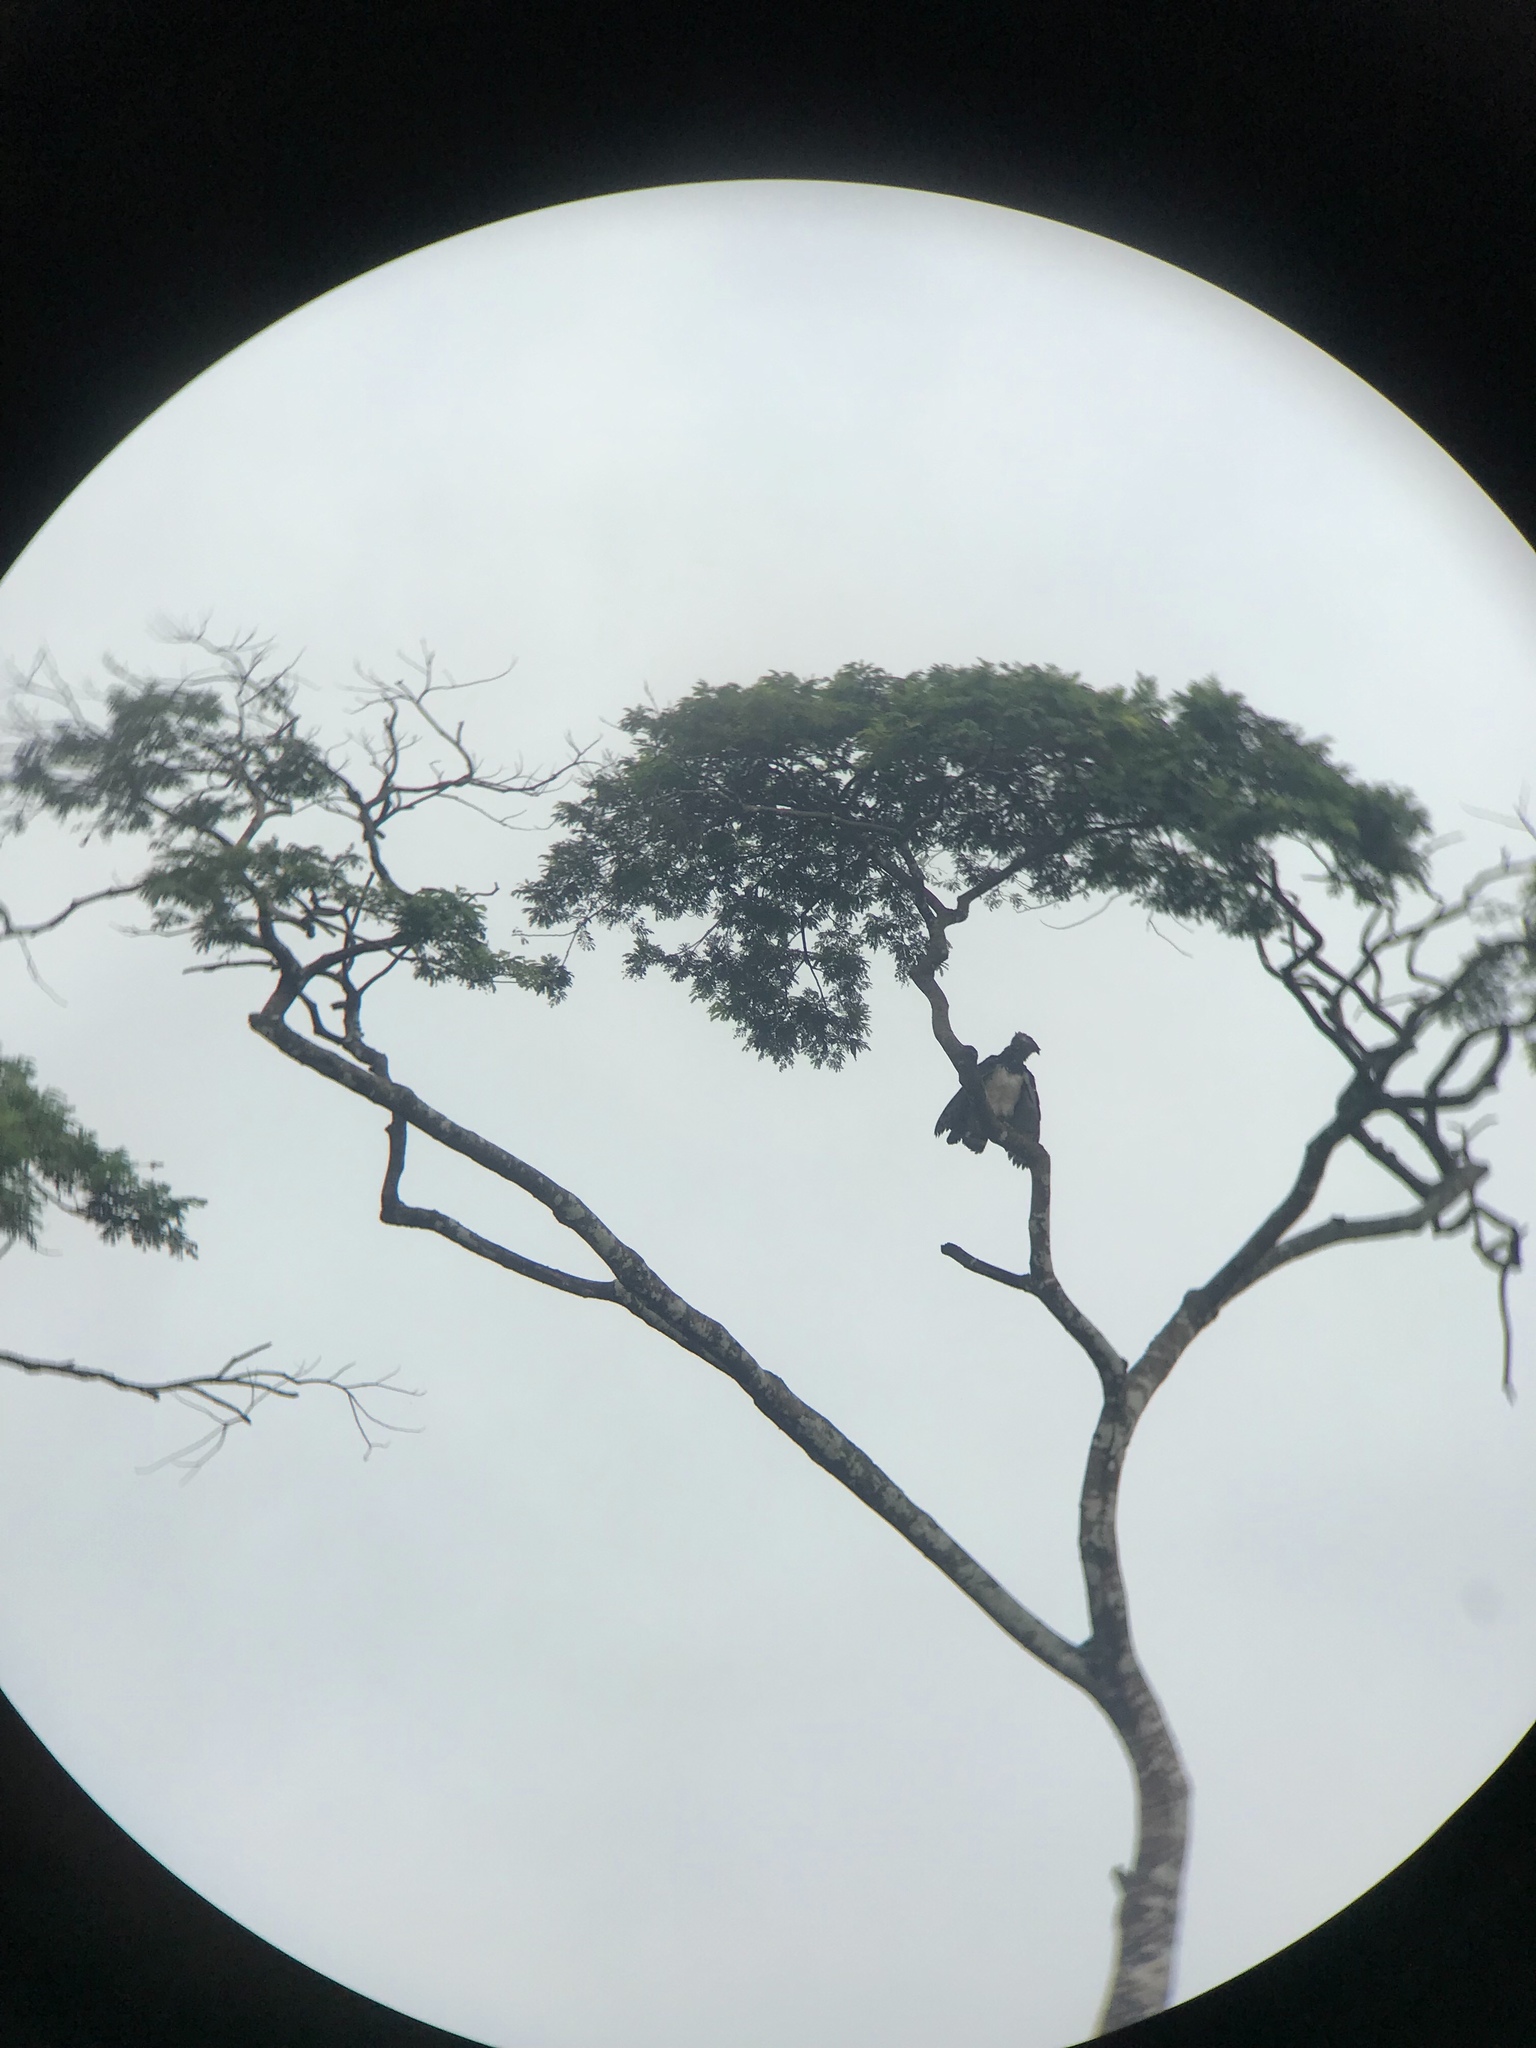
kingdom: Animalia
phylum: Chordata
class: Aves
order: Accipitriformes
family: Accipitridae
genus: Harpia
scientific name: Harpia harpyja
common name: Harpy eagle
